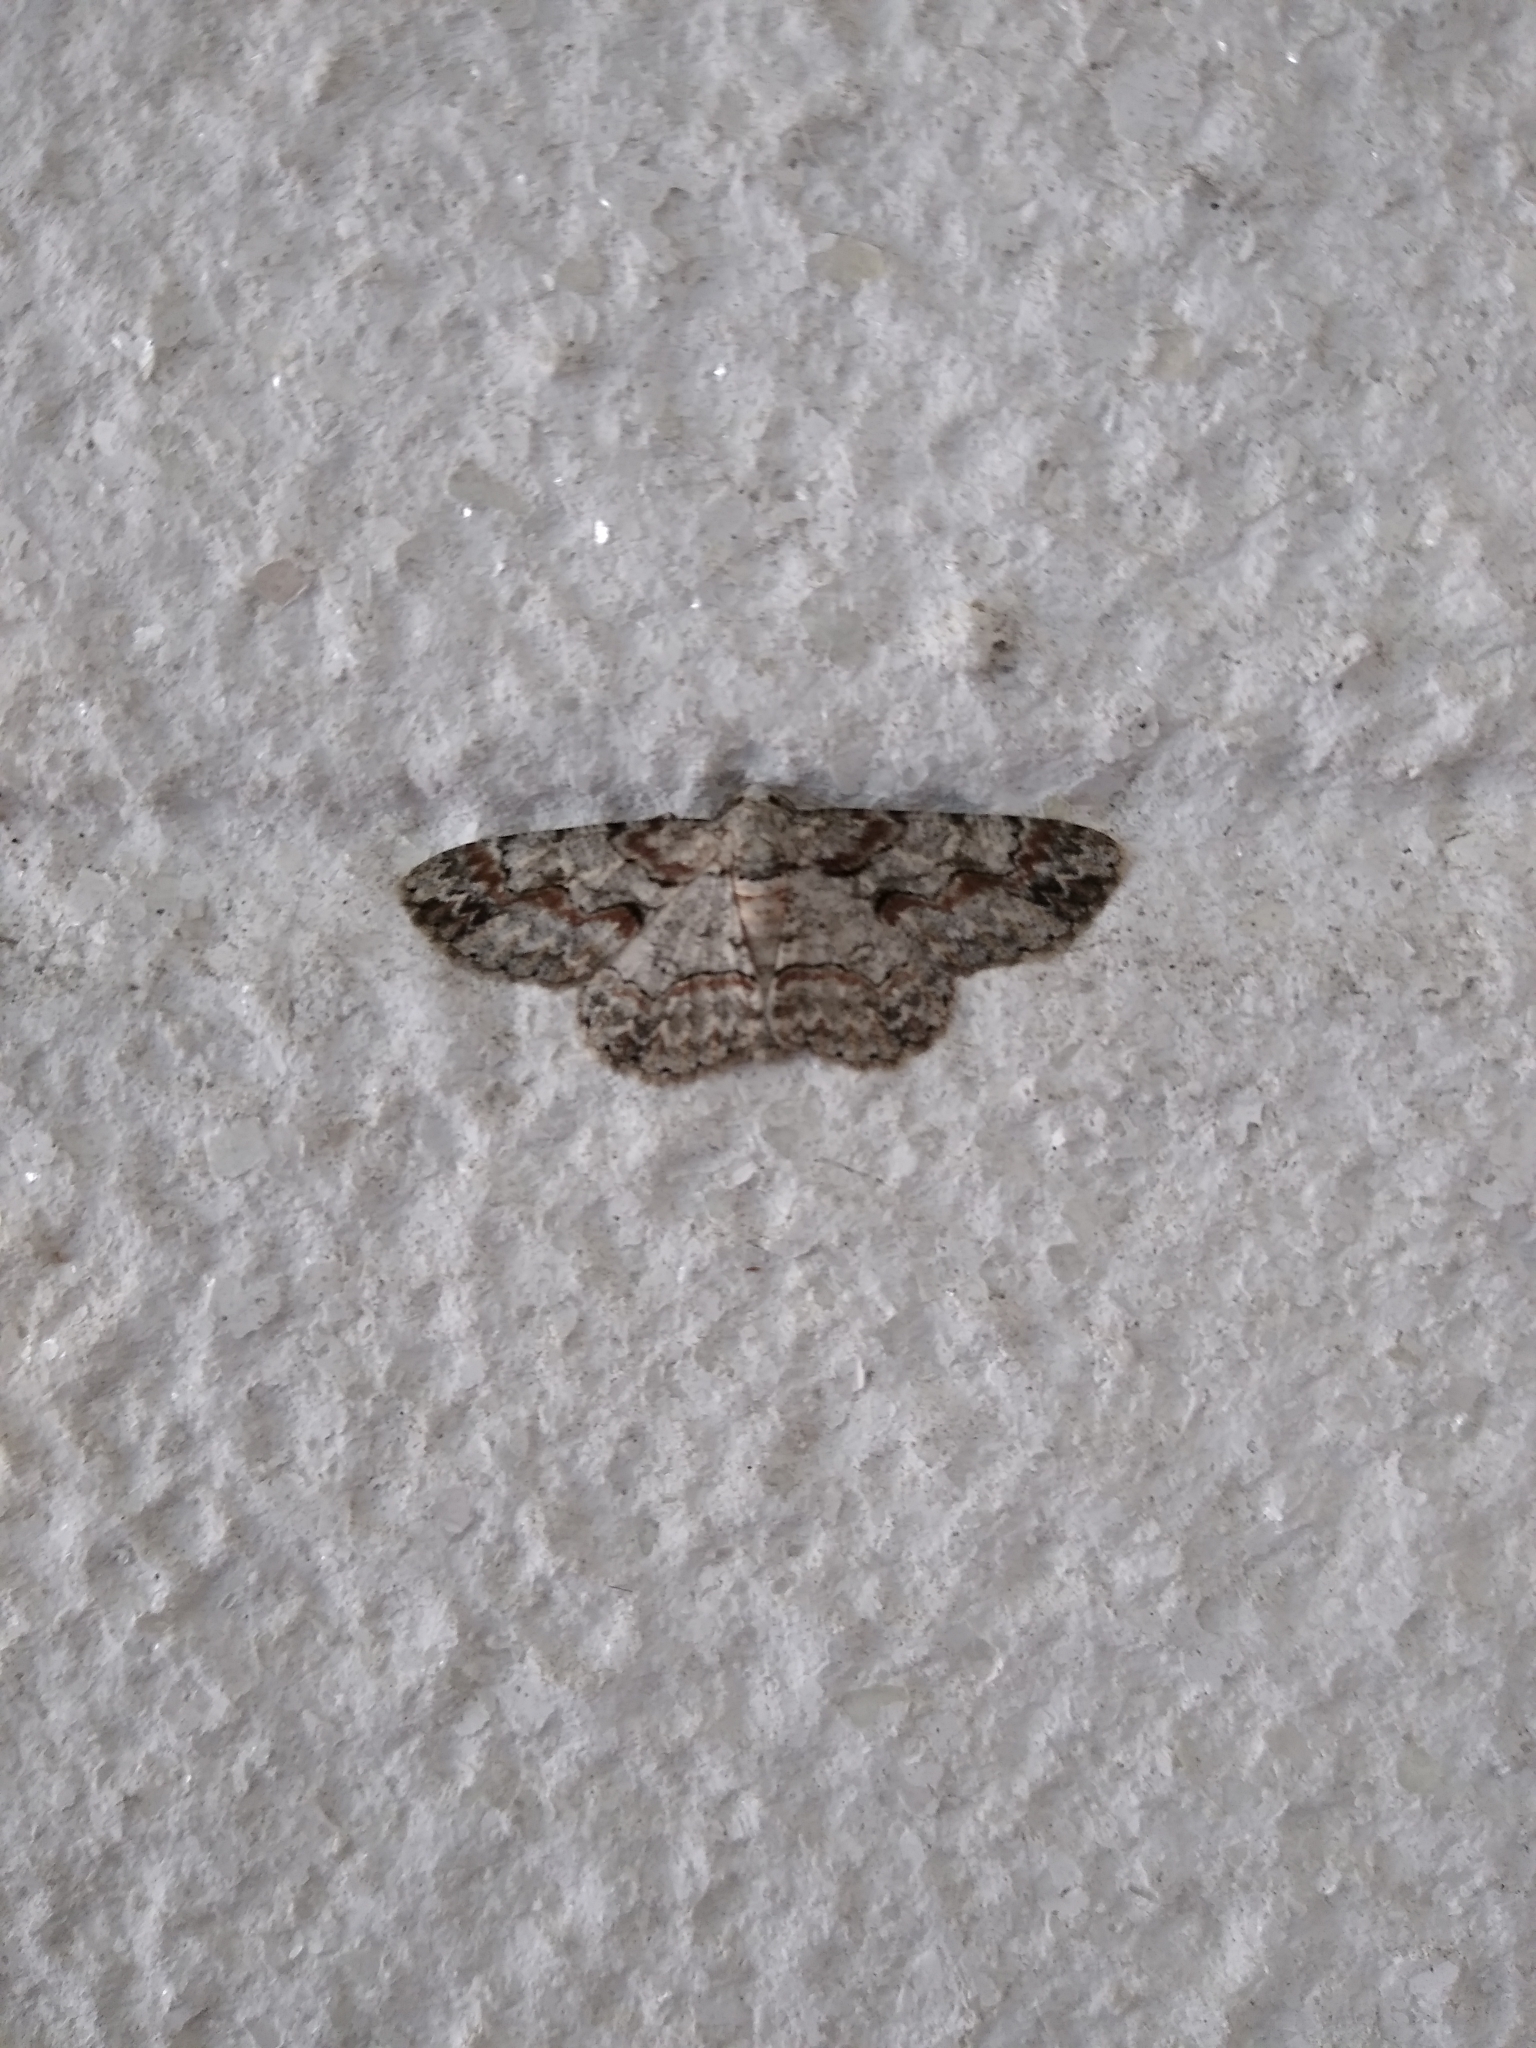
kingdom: Animalia
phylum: Arthropoda
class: Insecta
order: Lepidoptera
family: Geometridae
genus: Iridopsis
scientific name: Iridopsis defectaria
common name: Brown-shaded gray
